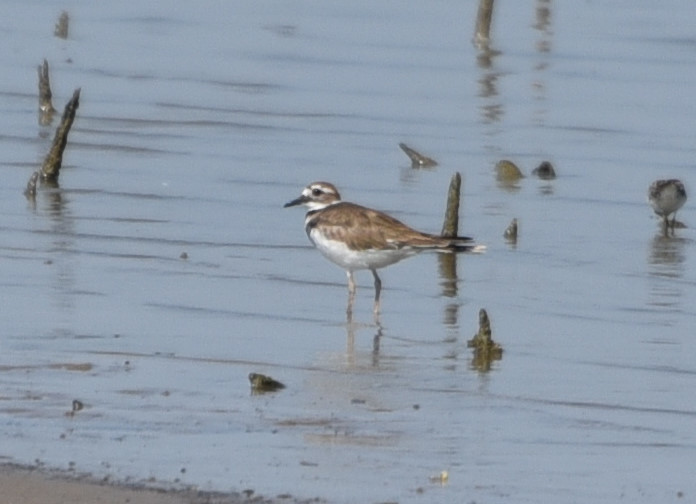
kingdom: Animalia
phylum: Chordata
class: Aves
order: Charadriiformes
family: Charadriidae
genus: Charadrius
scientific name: Charadrius vociferus
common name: Killdeer
